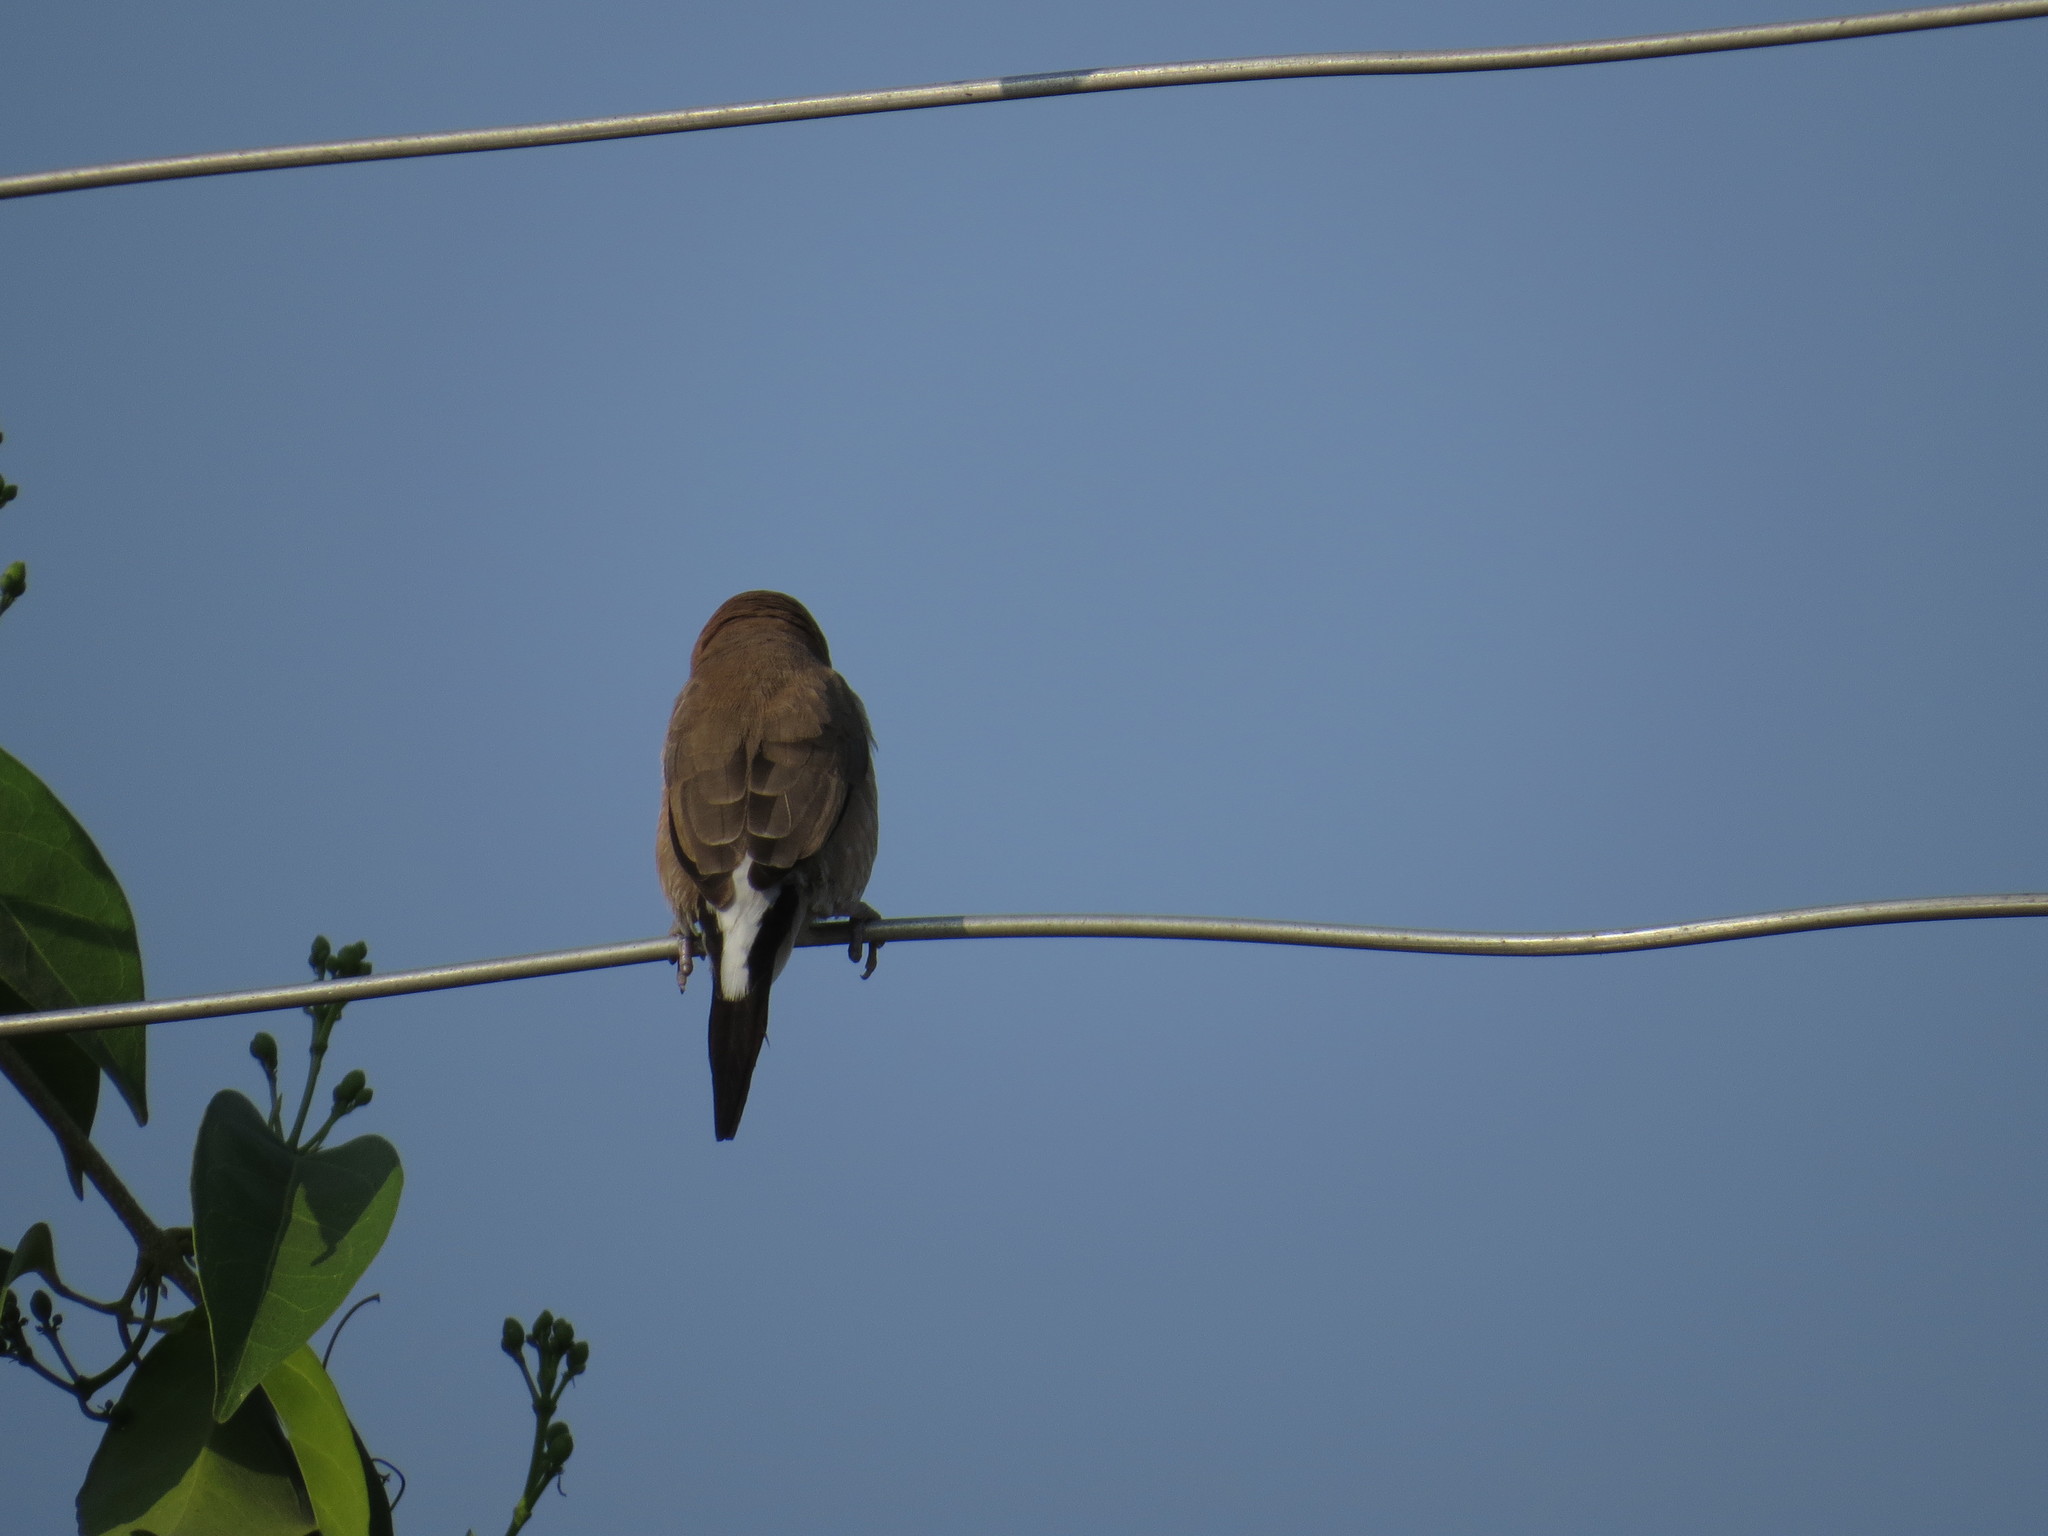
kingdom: Animalia
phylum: Chordata
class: Aves
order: Passeriformes
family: Estrildidae
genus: Euodice
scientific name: Euodice malabarica
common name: Indian silverbill
